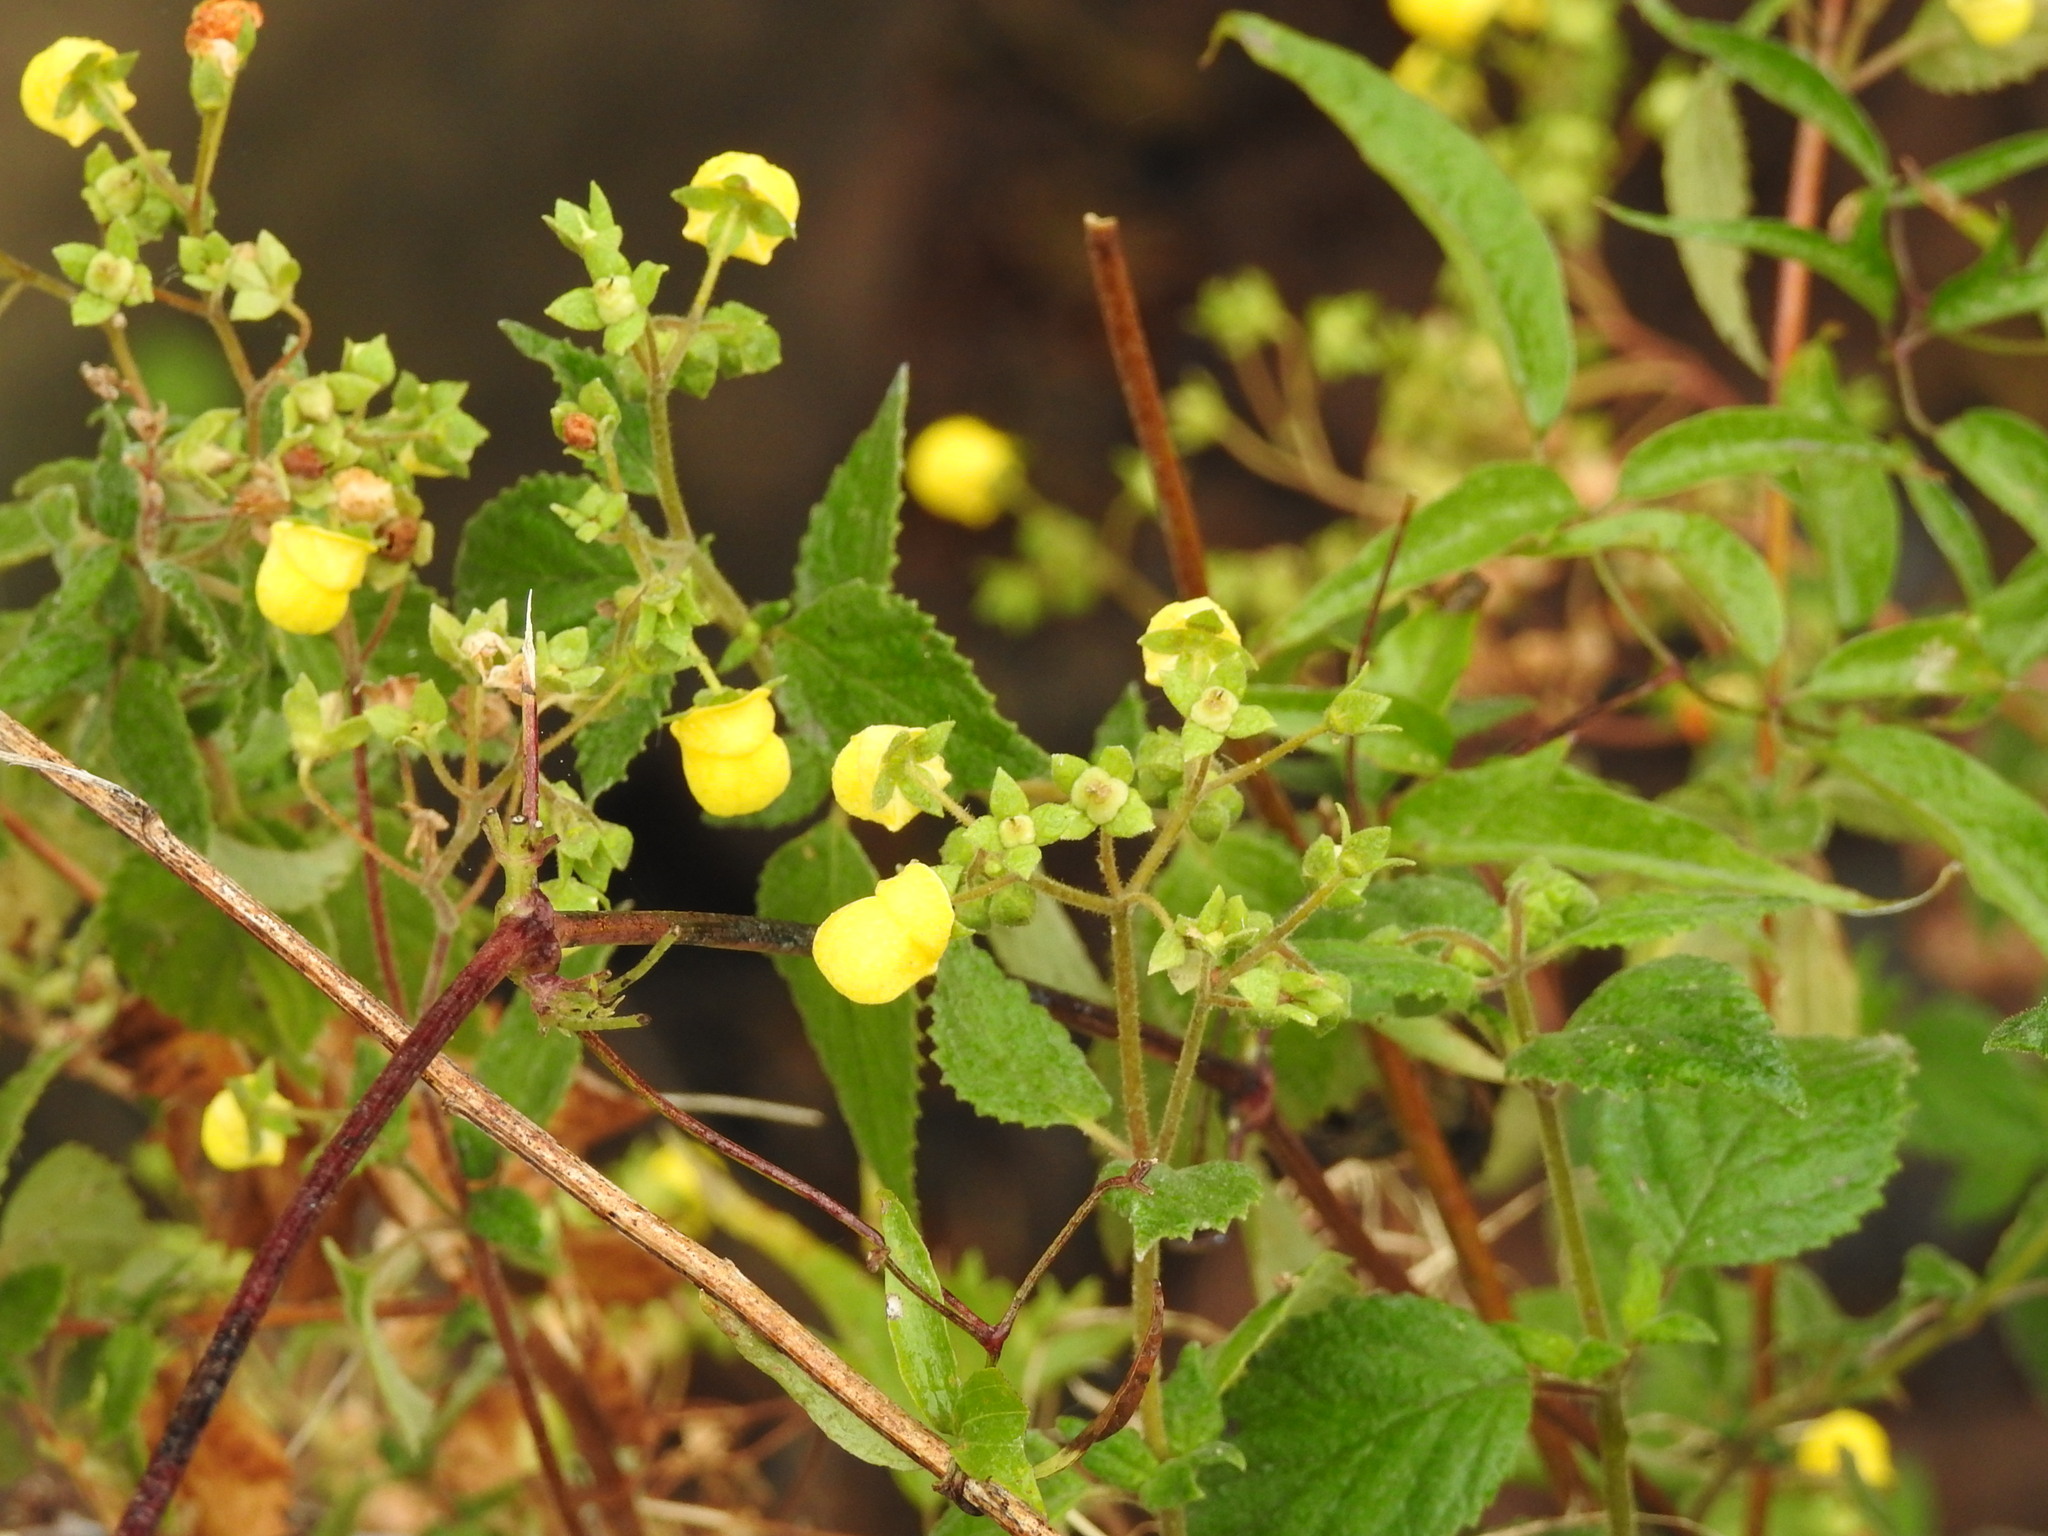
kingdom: Plantae
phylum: Tracheophyta
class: Magnoliopsida
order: Lamiales
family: Calceolariaceae
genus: Calceolaria
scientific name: Calceolaria elatior
